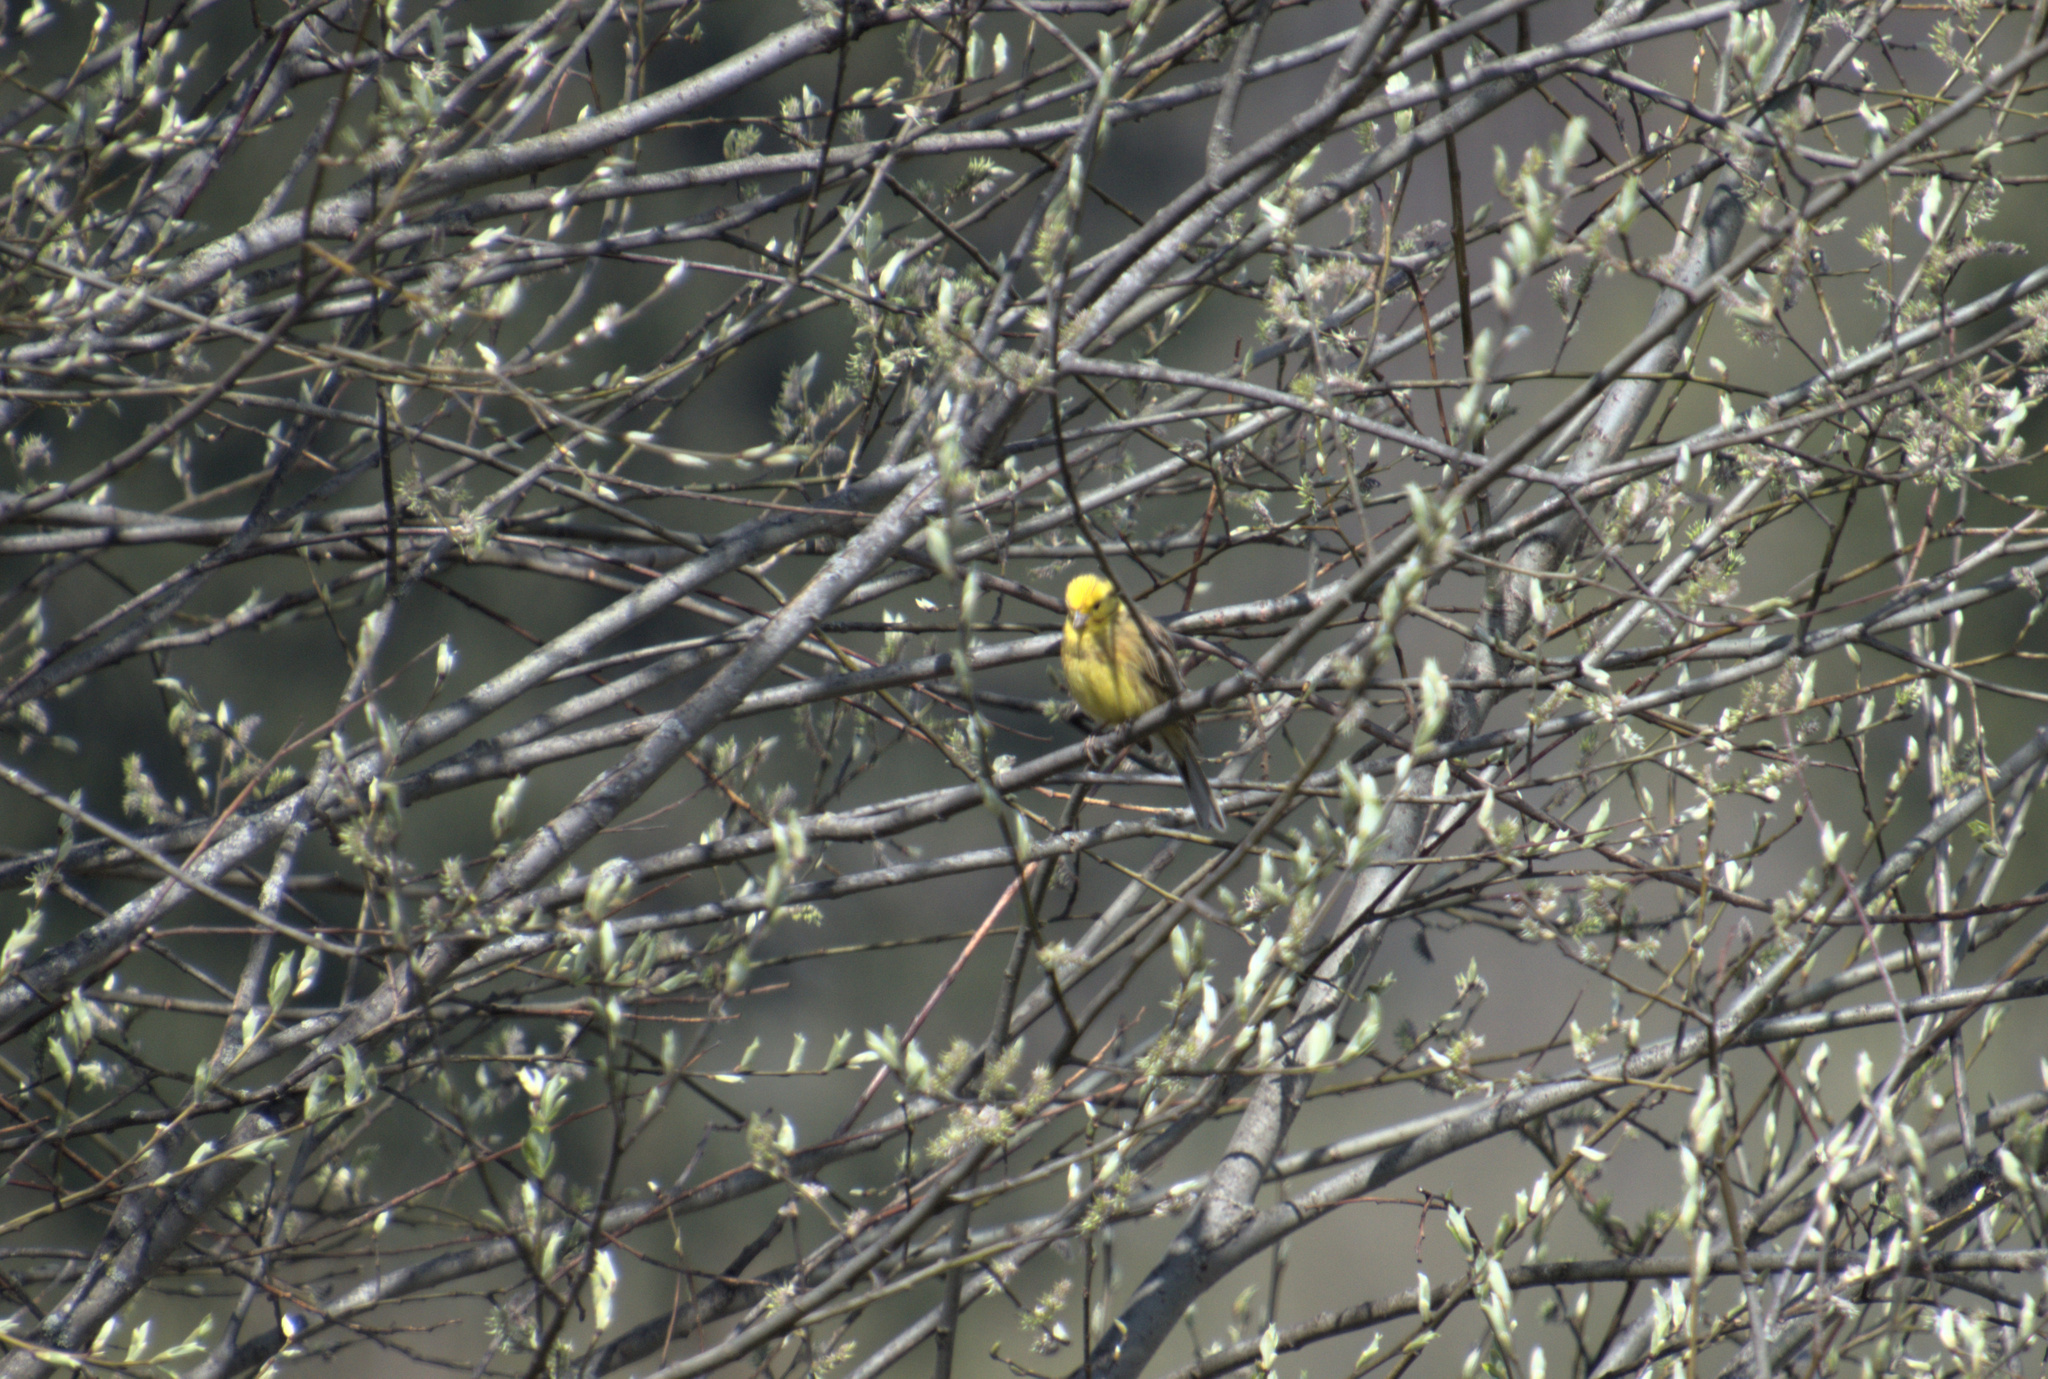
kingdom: Animalia
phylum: Chordata
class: Aves
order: Passeriformes
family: Emberizidae
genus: Emberiza
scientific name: Emberiza citrinella
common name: Yellowhammer
